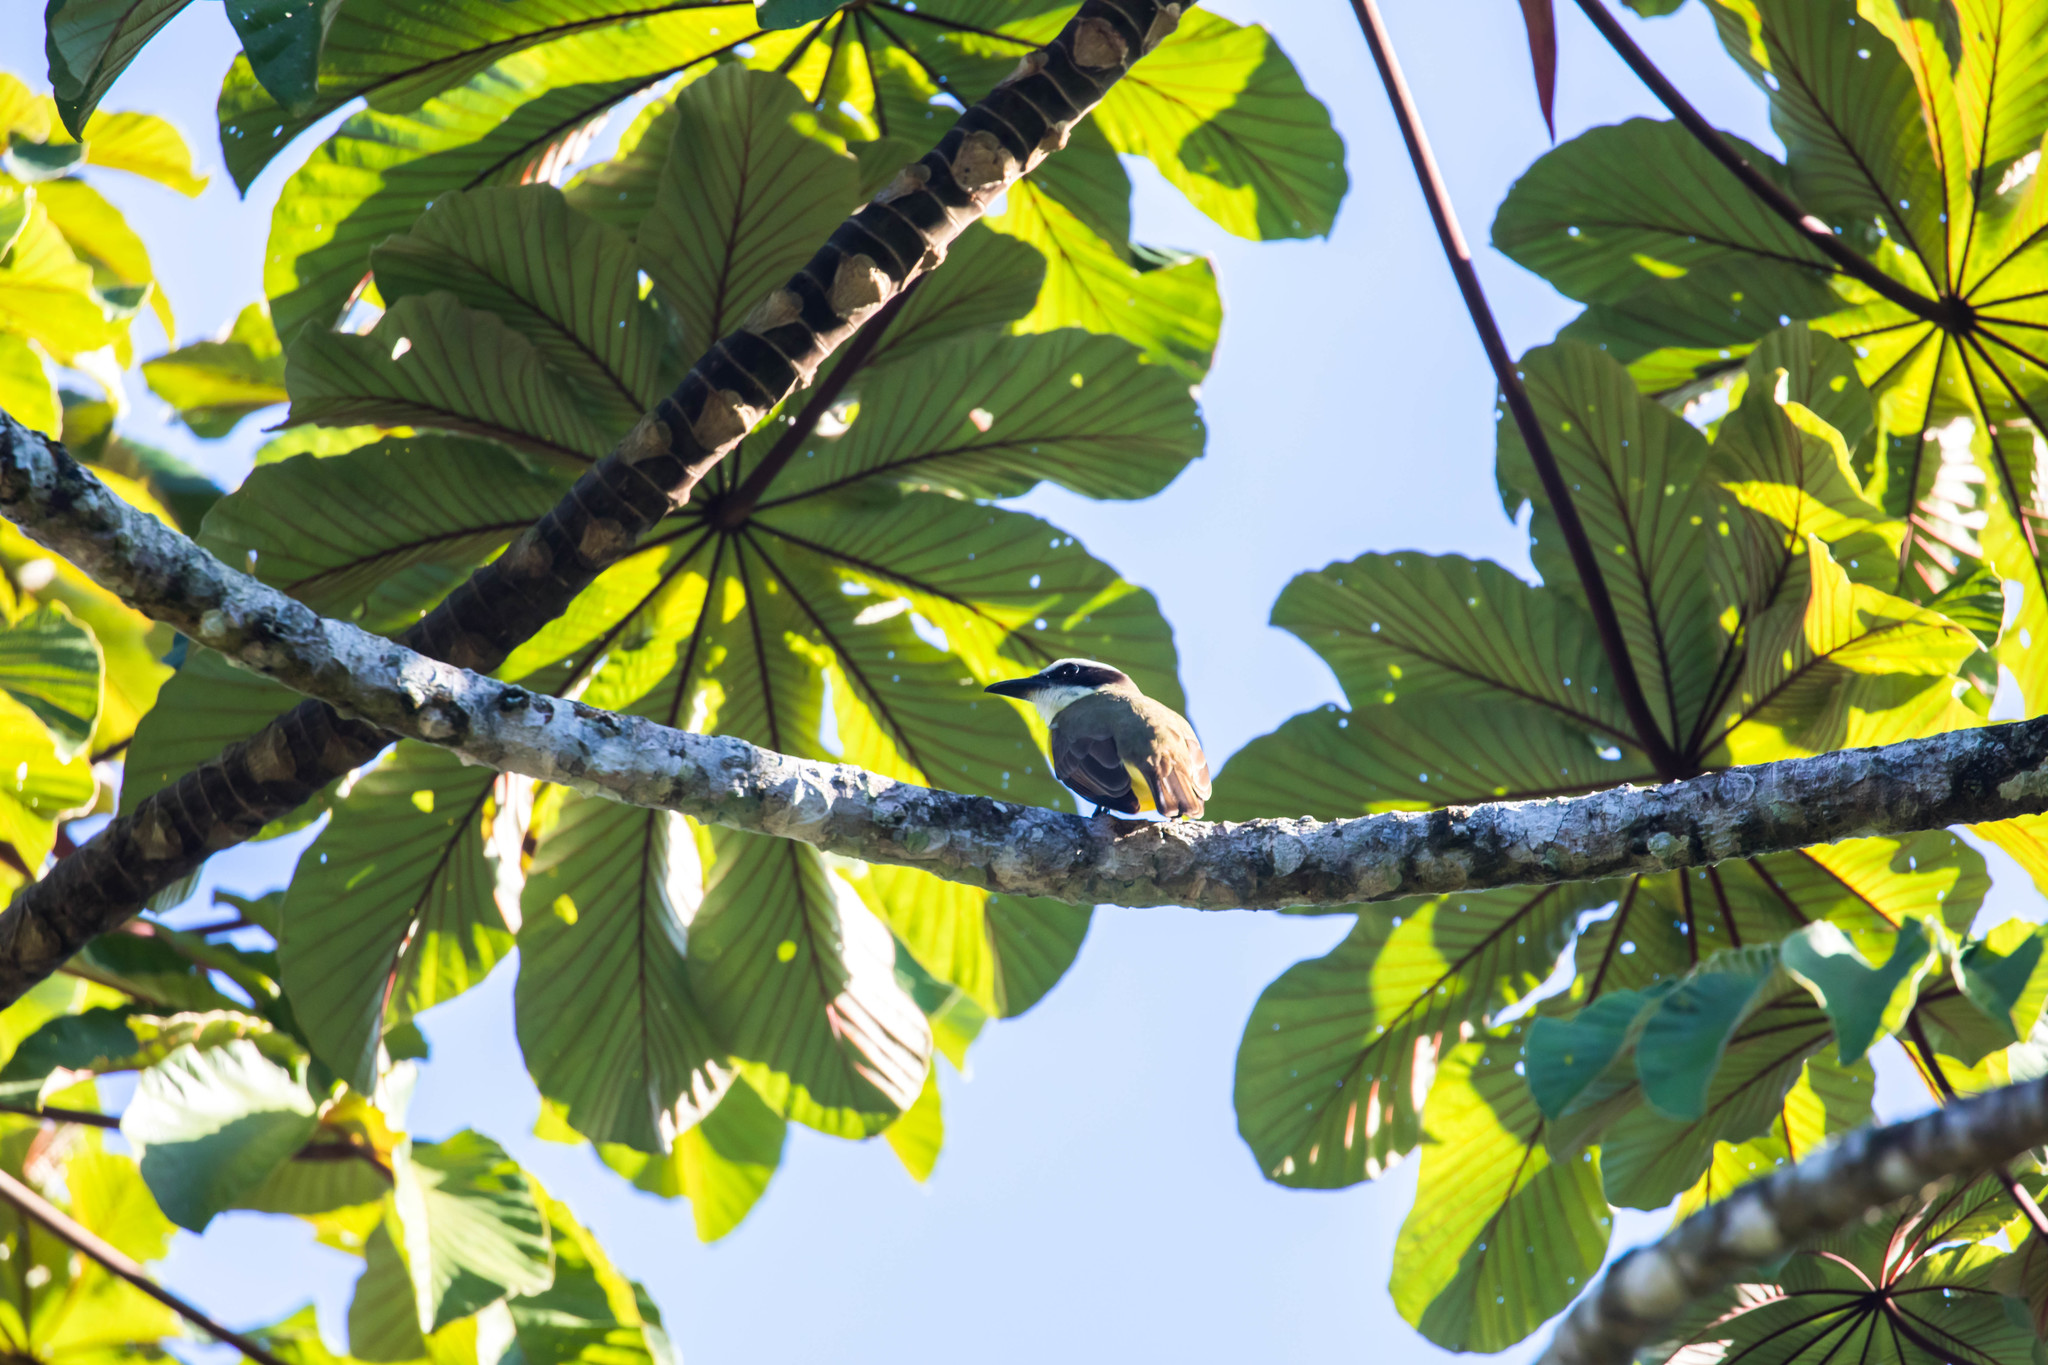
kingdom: Animalia
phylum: Chordata
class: Aves
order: Passeriformes
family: Tyrannidae
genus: Megarynchus
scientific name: Megarynchus pitangua
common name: Boat-billed flycatcher
